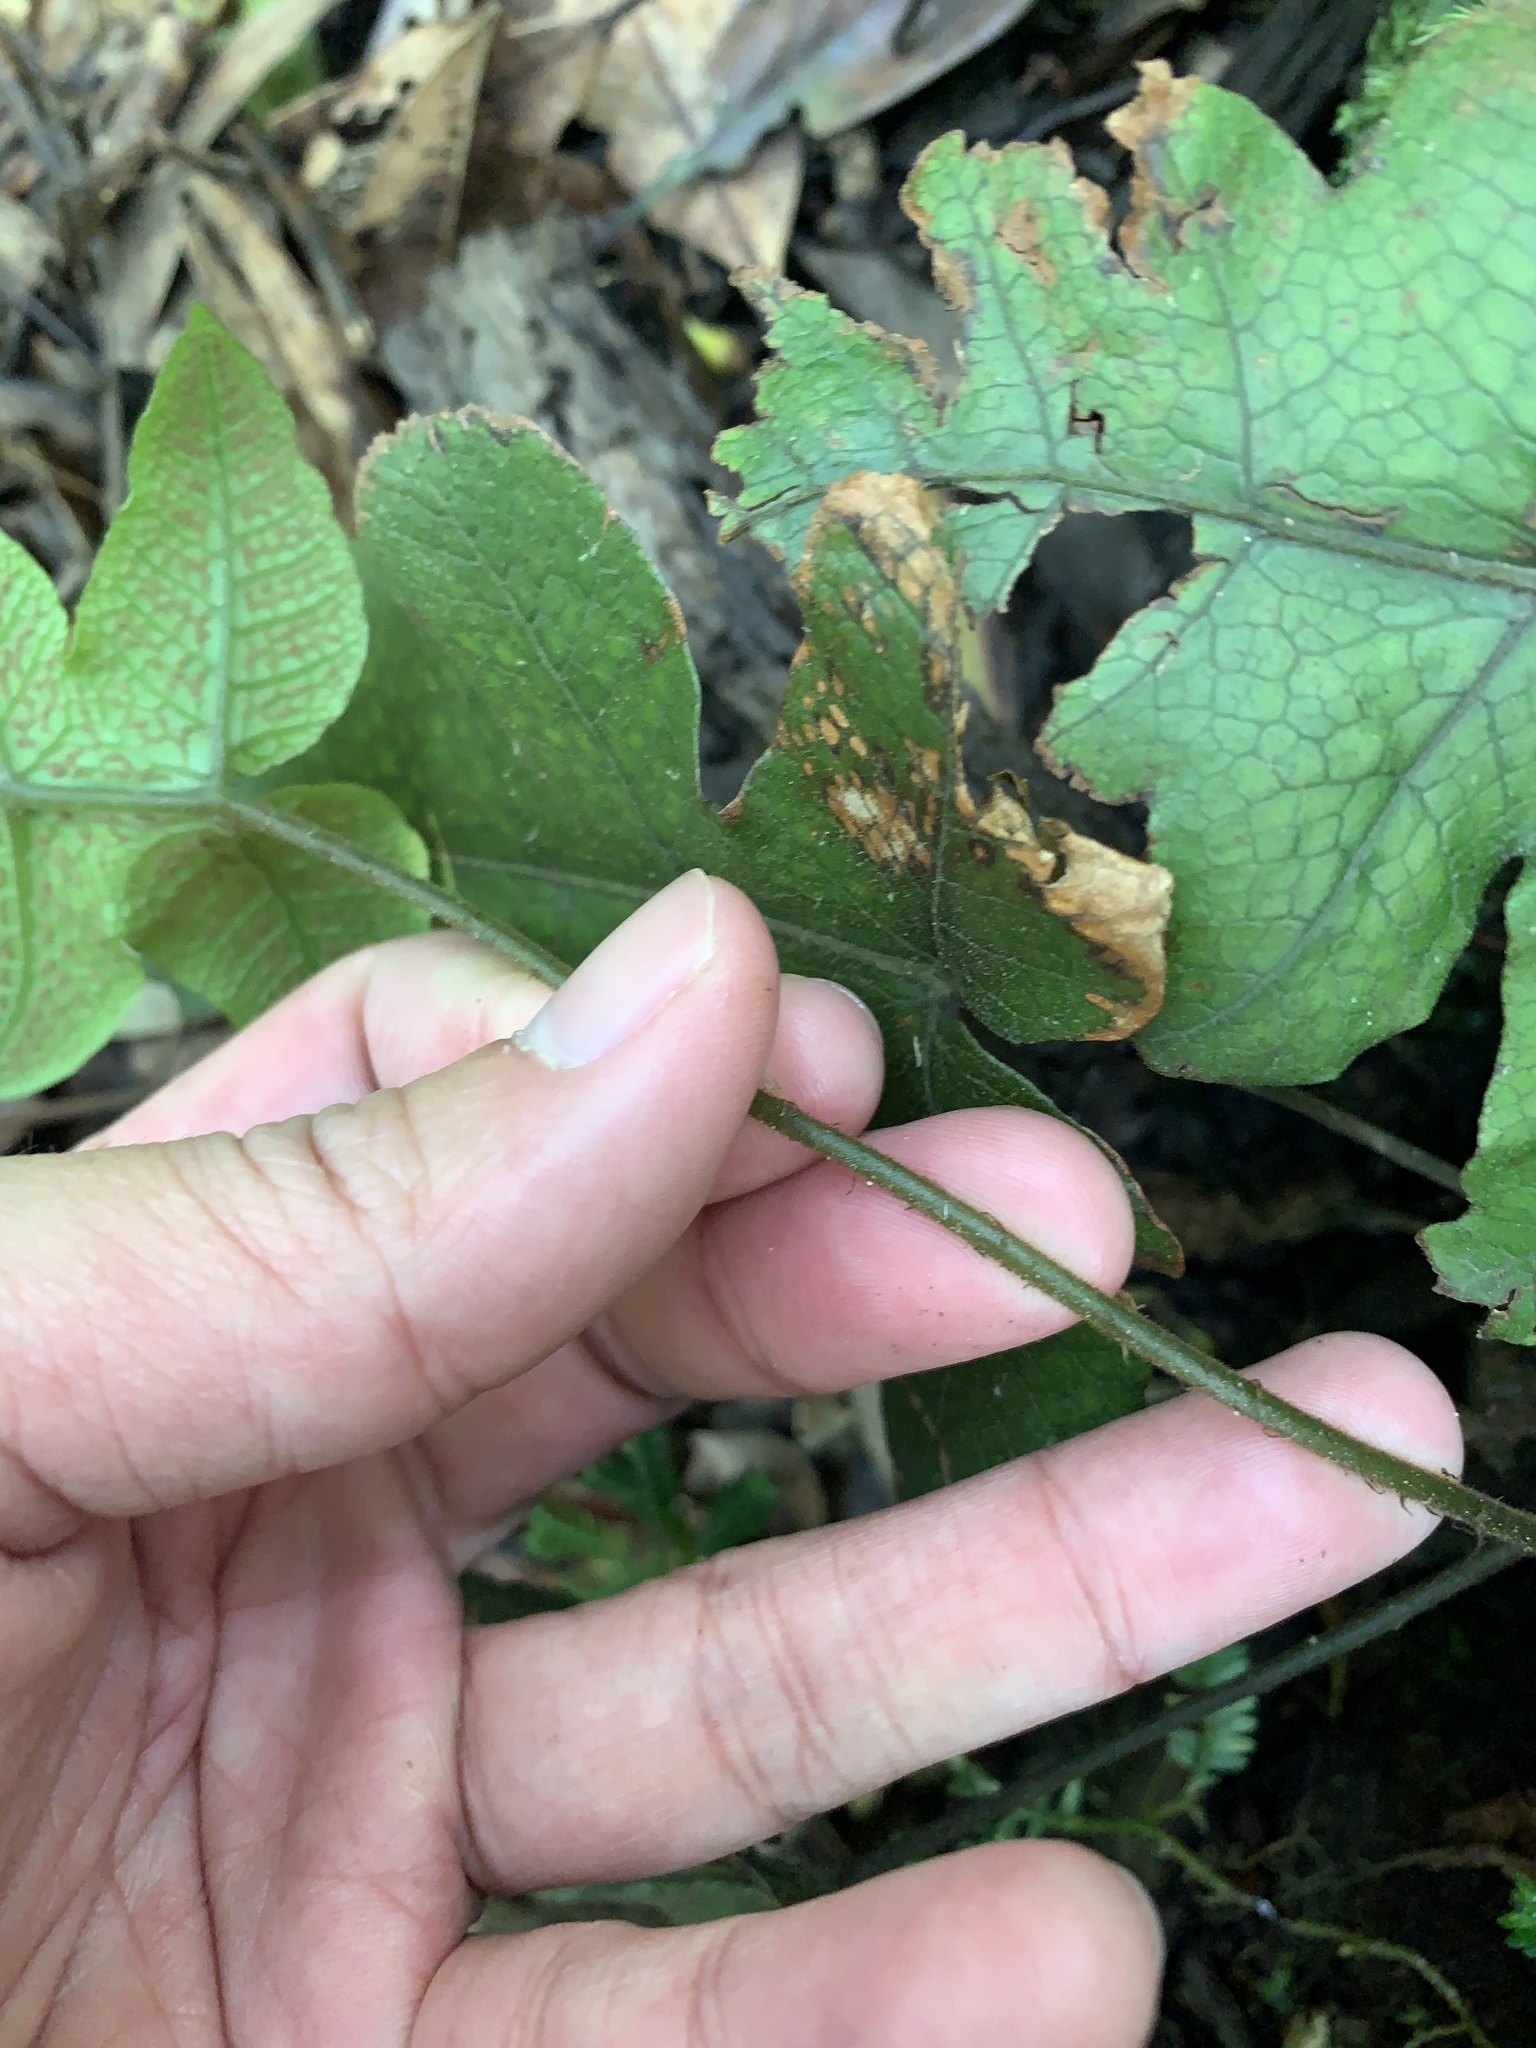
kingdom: Plantae
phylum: Tracheophyta
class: Polypodiopsida
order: Polypodiales
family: Thelypteridaceae
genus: Stegnogramma
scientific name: Stegnogramma wilfordii
